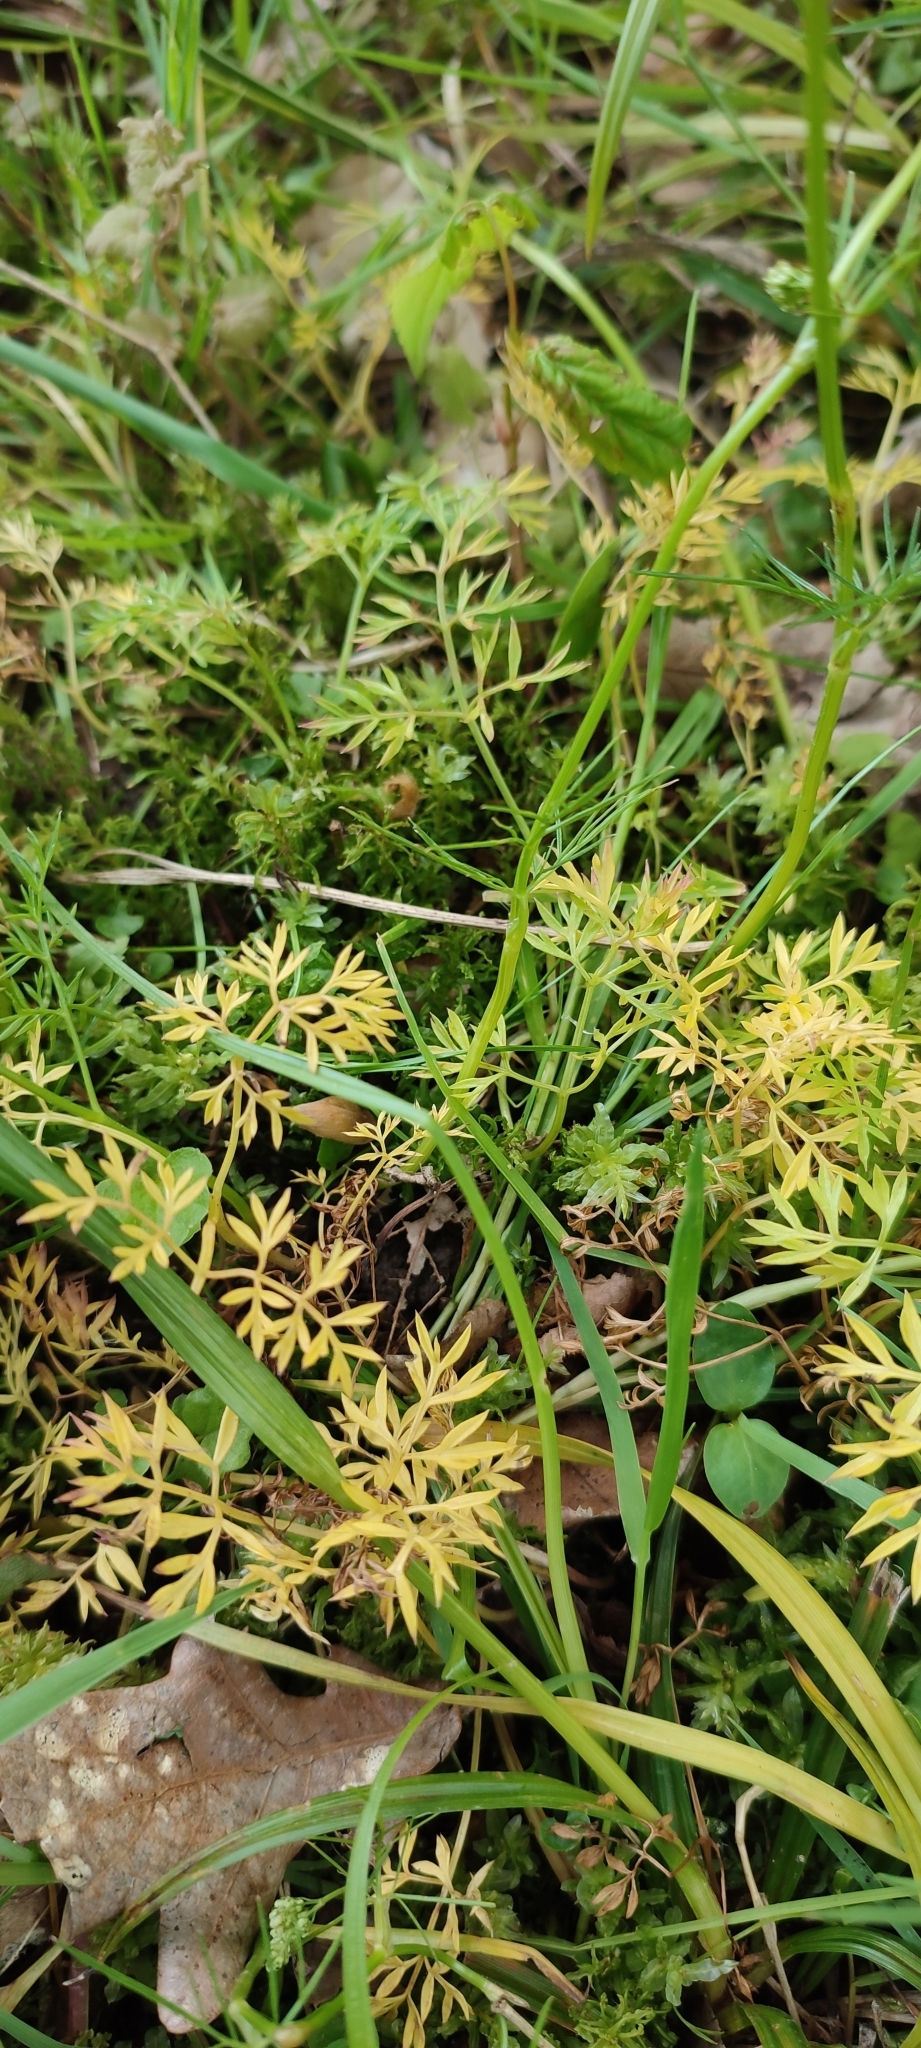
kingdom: Plantae
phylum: Tracheophyta
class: Magnoliopsida
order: Apiales
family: Apiaceae
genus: Conopodium
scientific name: Conopodium majus
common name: Pignut
